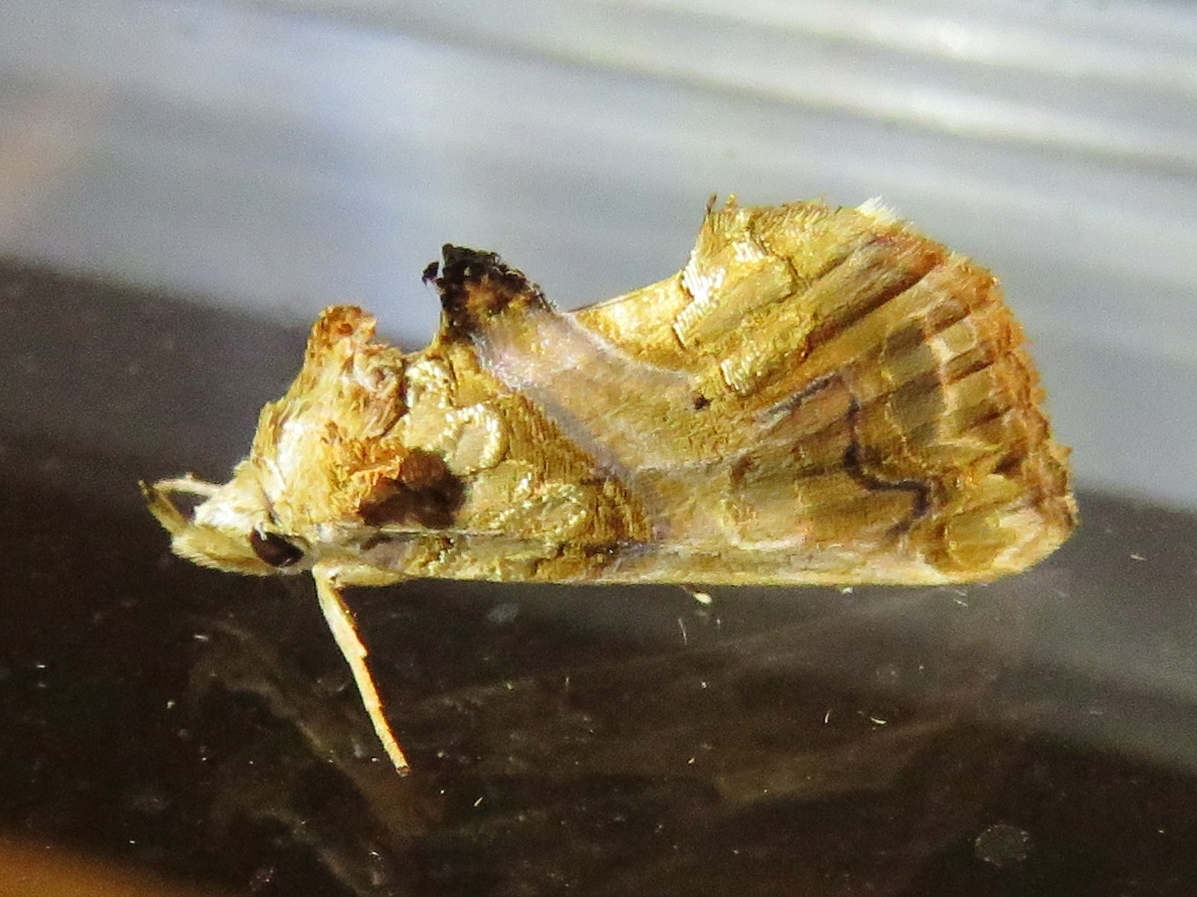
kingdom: Animalia
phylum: Arthropoda
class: Insecta
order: Lepidoptera
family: Erebidae
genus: Plusiodonta
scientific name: Plusiodonta compressipalpis
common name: Moonseed moth
